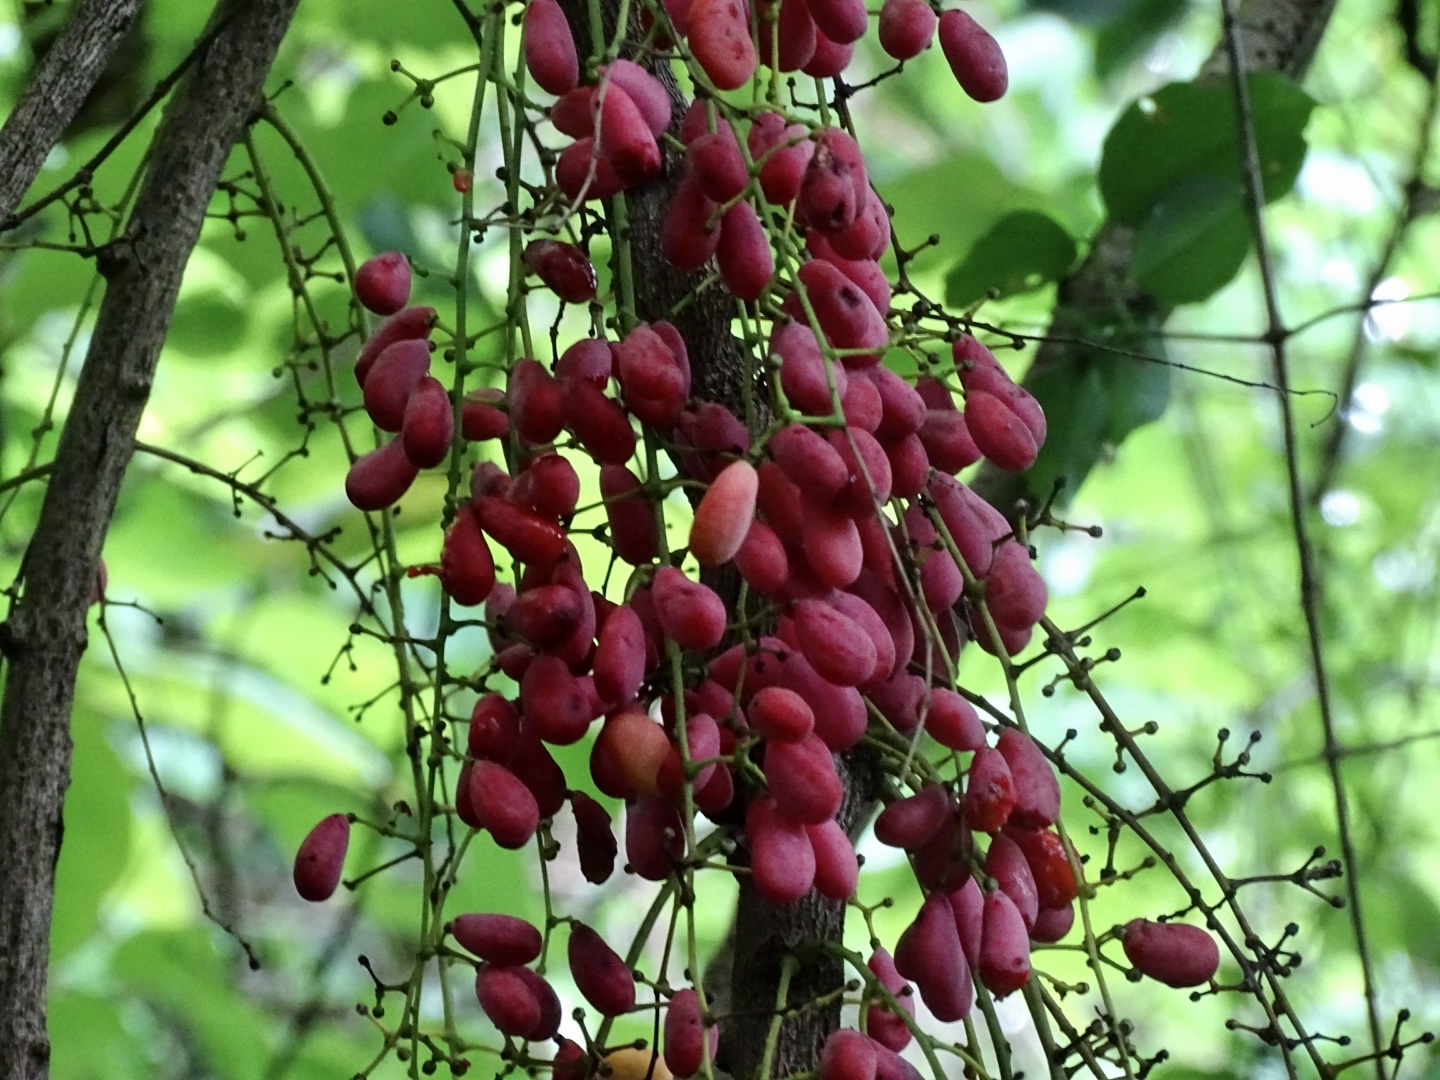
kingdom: Plantae
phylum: Tracheophyta
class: Magnoliopsida
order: Ranunculales
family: Menispermaceae
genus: Diploclisia
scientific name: Diploclisia glaucescens
